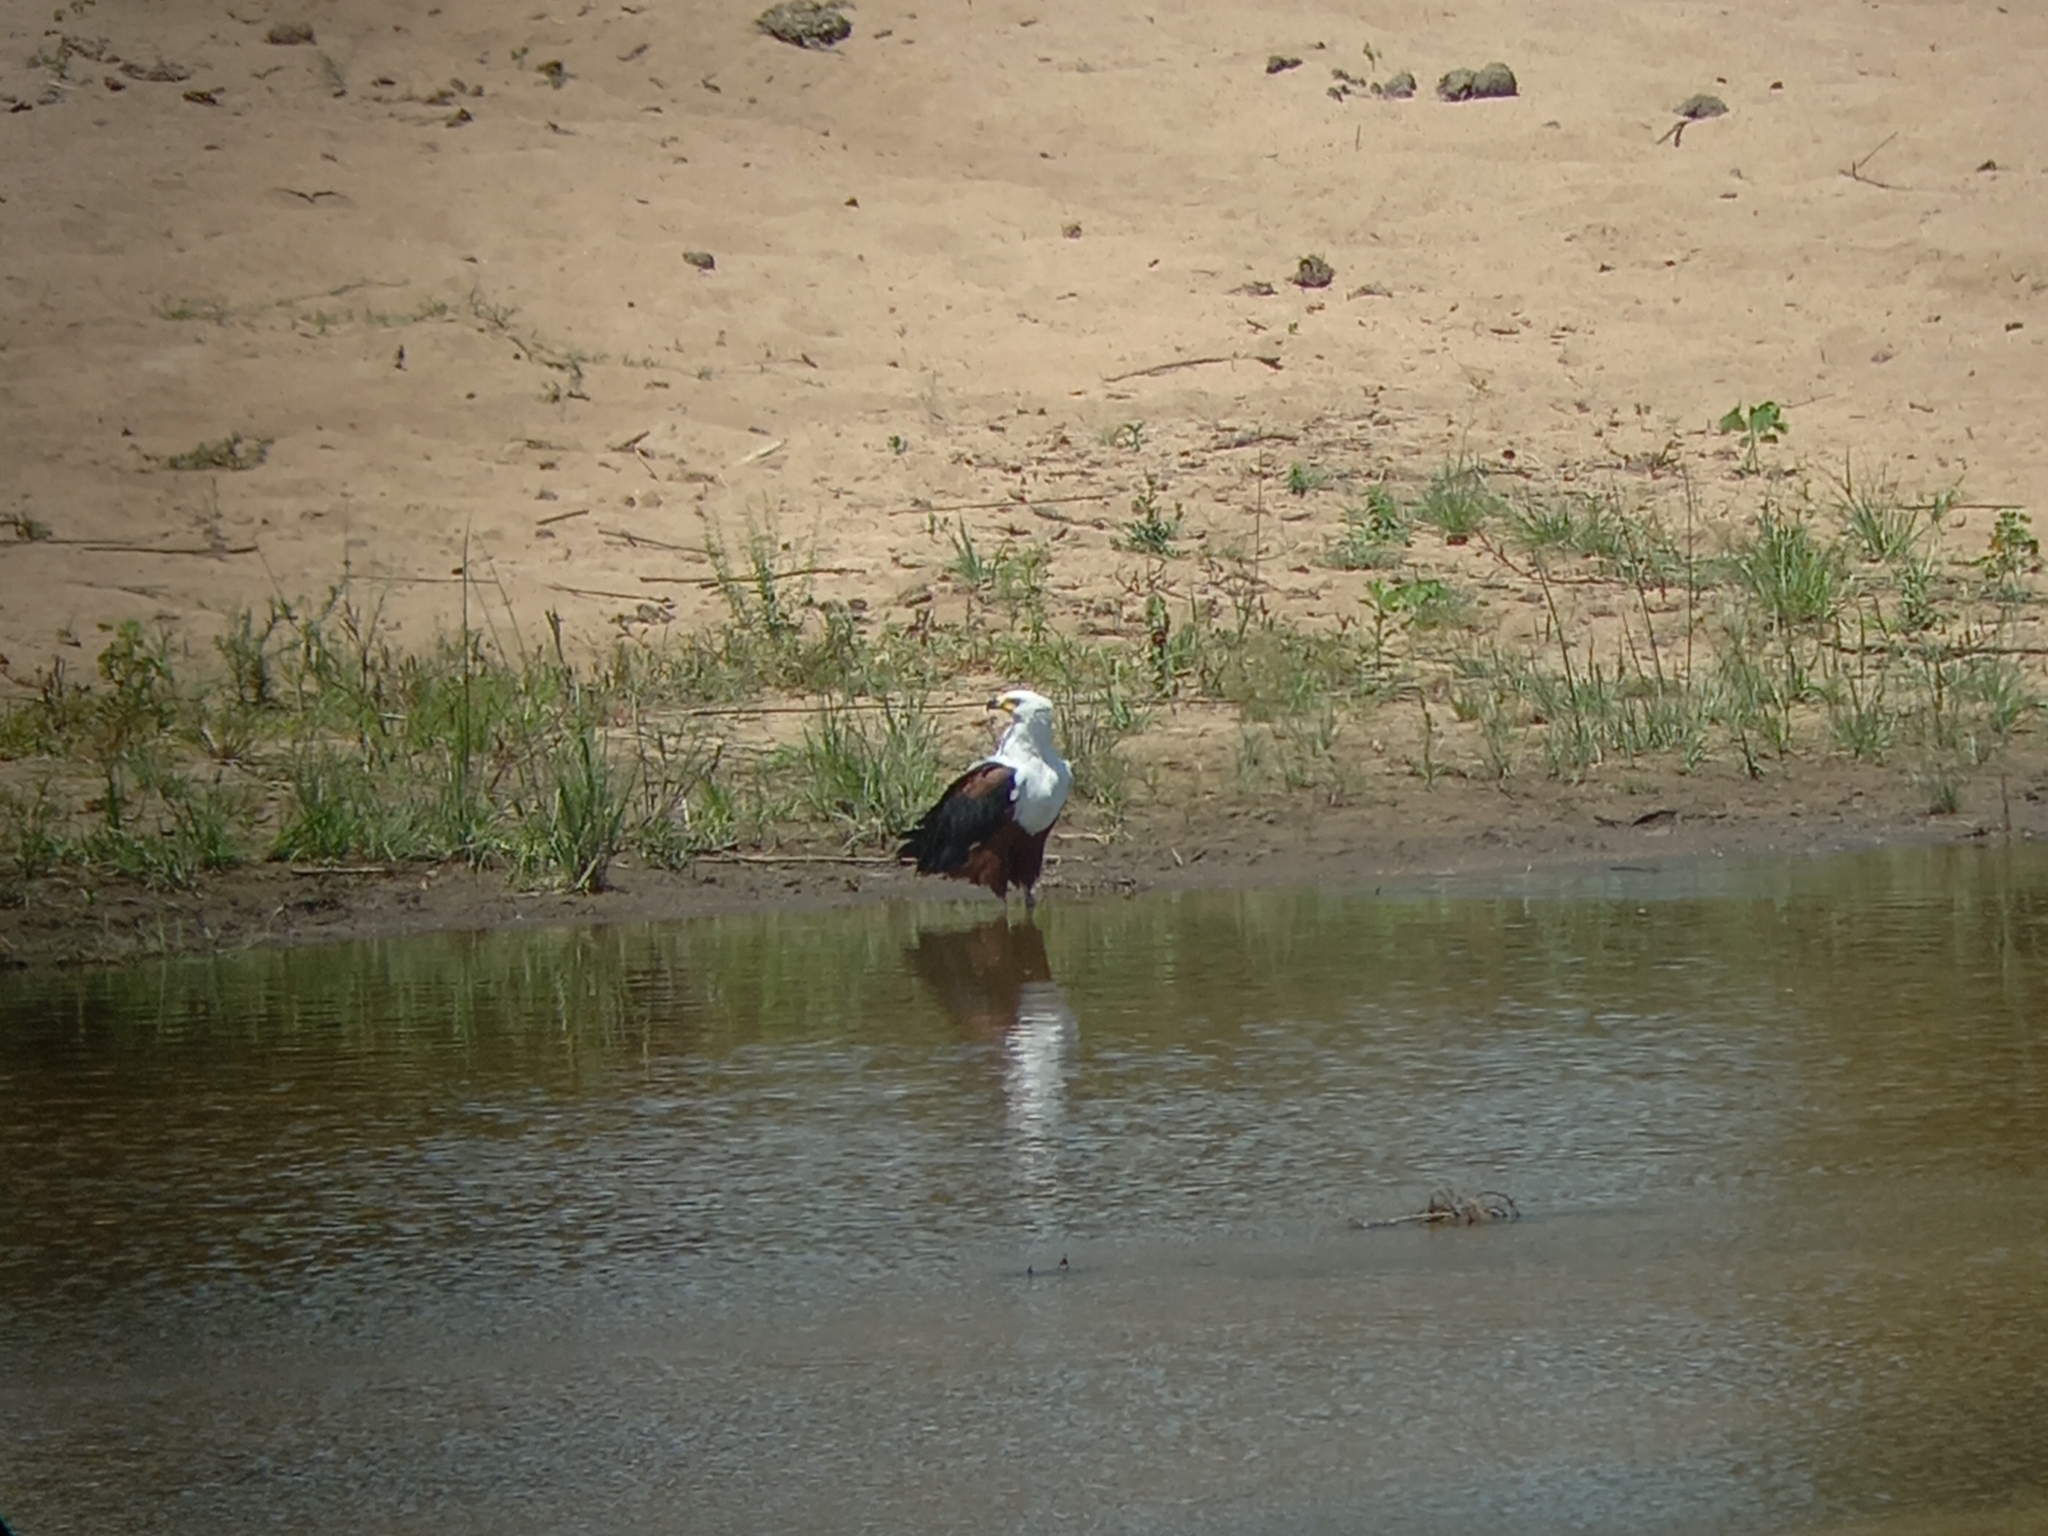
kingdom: Animalia
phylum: Chordata
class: Aves
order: Accipitriformes
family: Accipitridae
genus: Haliaeetus
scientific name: Haliaeetus vocifer
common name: African fish eagle
